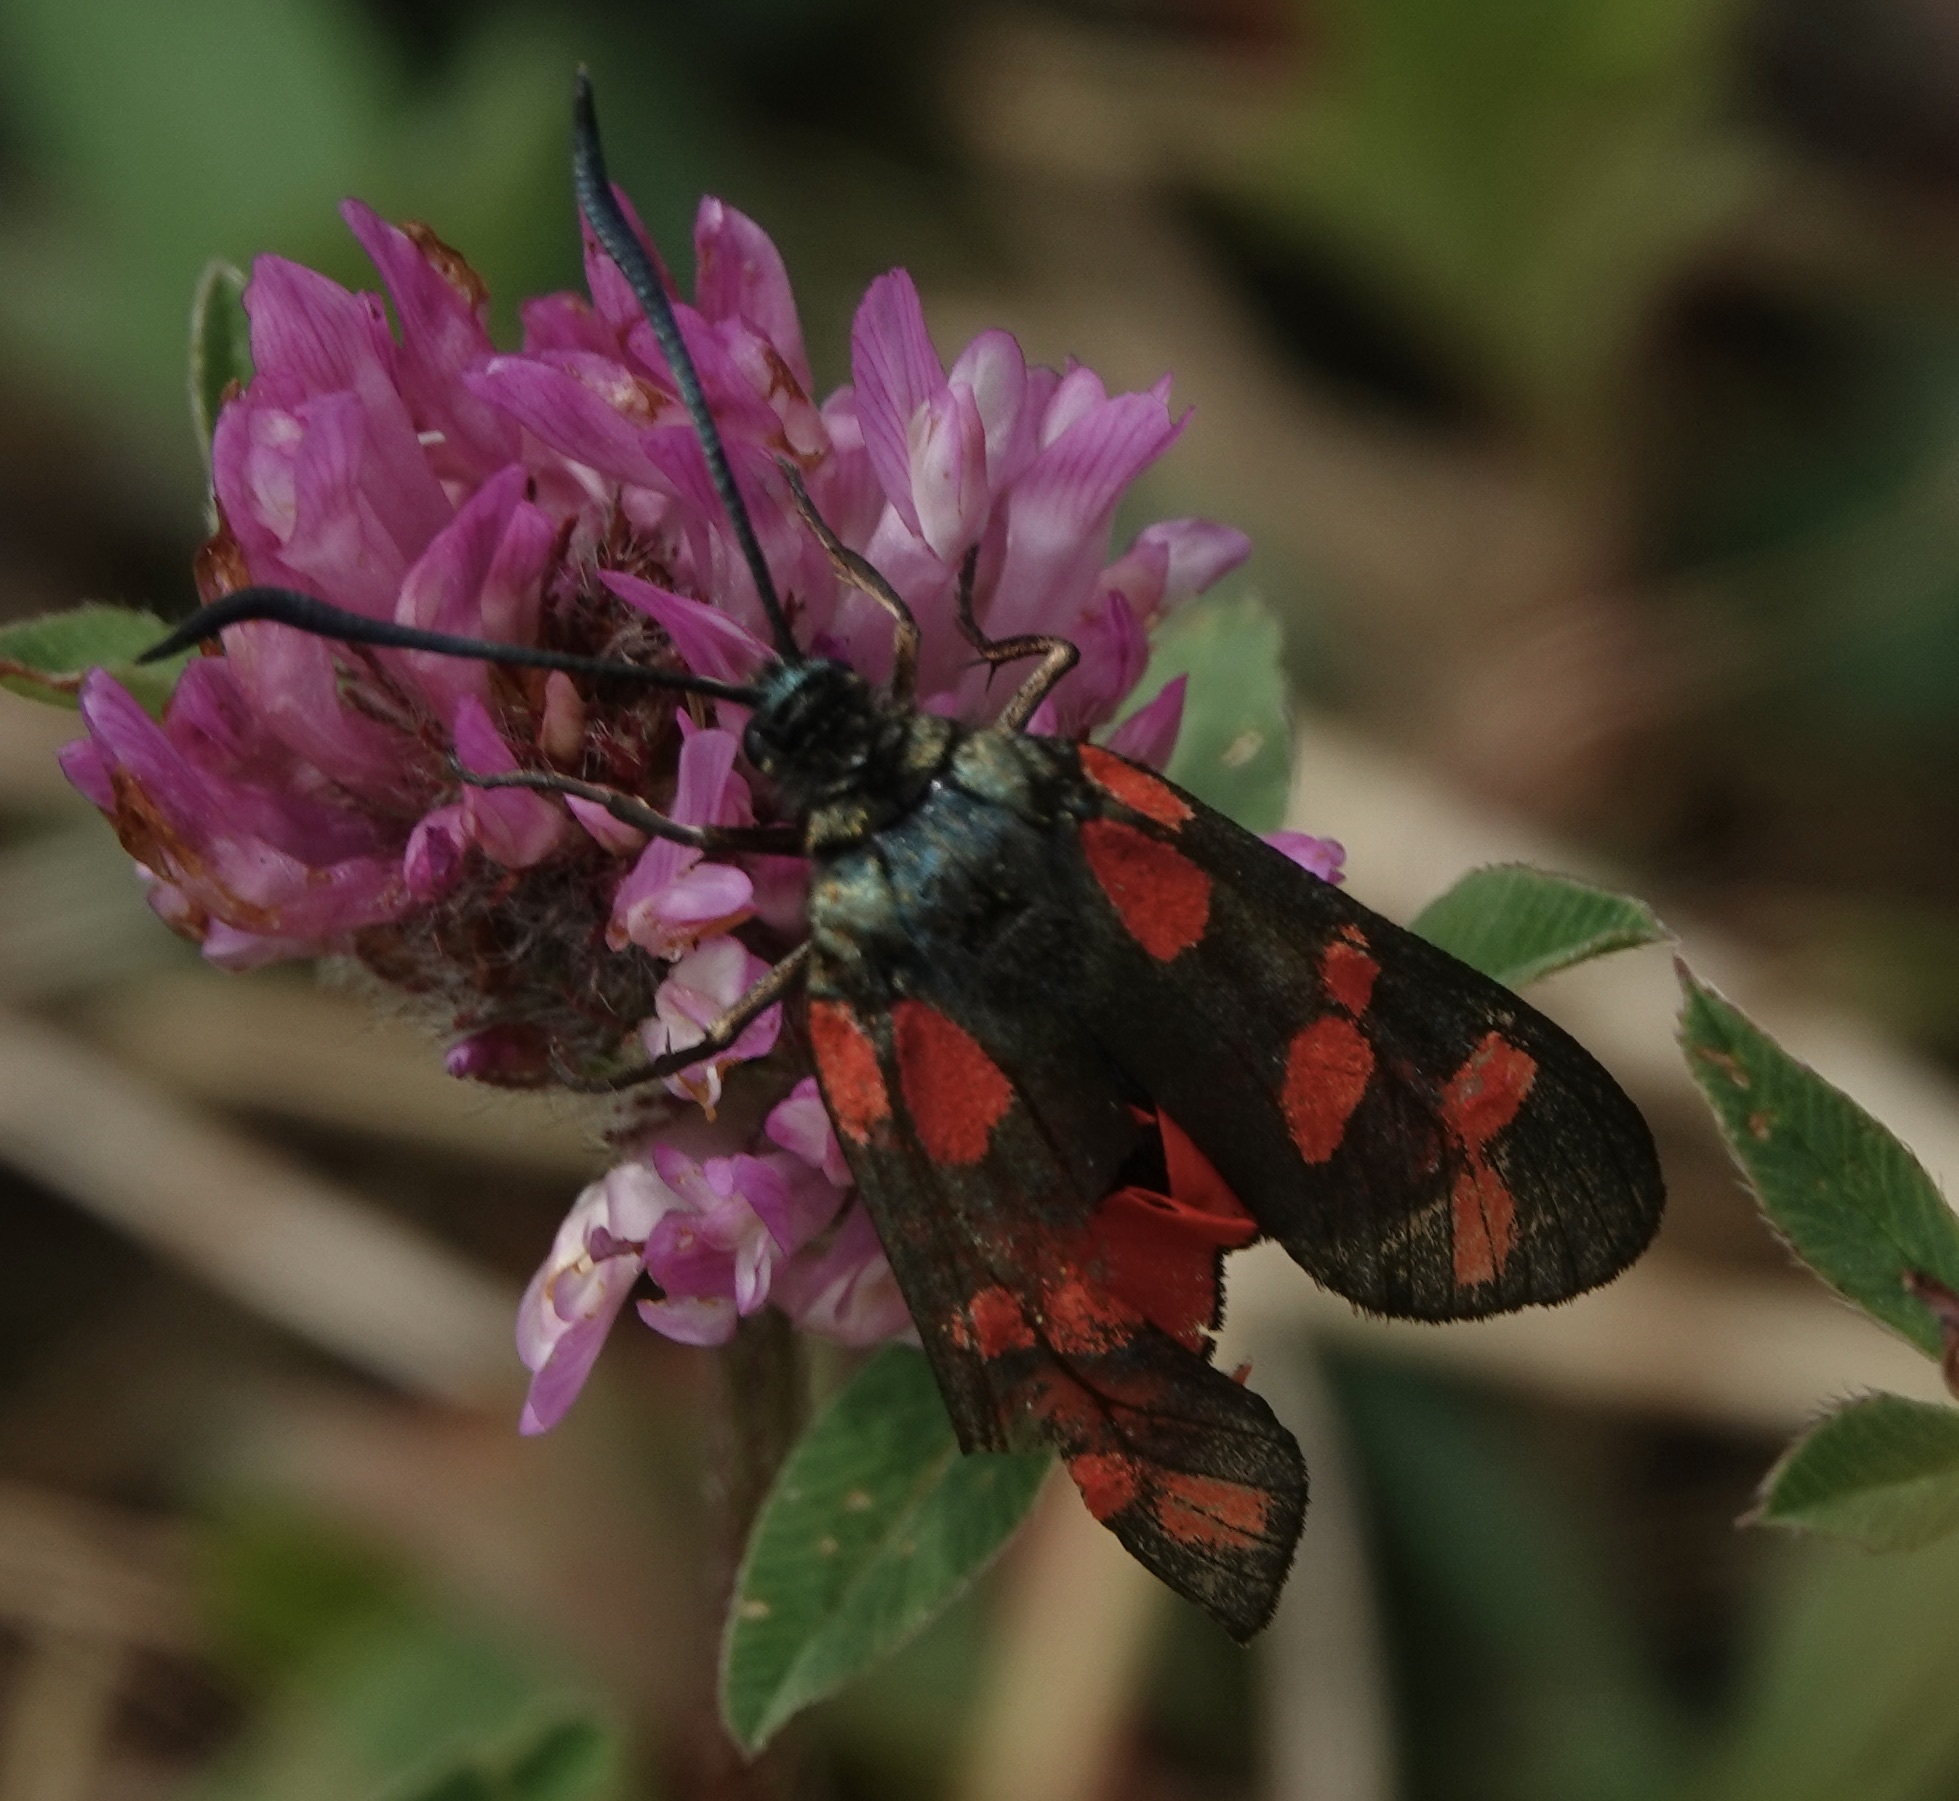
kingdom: Animalia
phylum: Arthropoda
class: Insecta
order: Lepidoptera
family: Zygaenidae
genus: Zygaena
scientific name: Zygaena filipendulae
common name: Six-spot burnet
